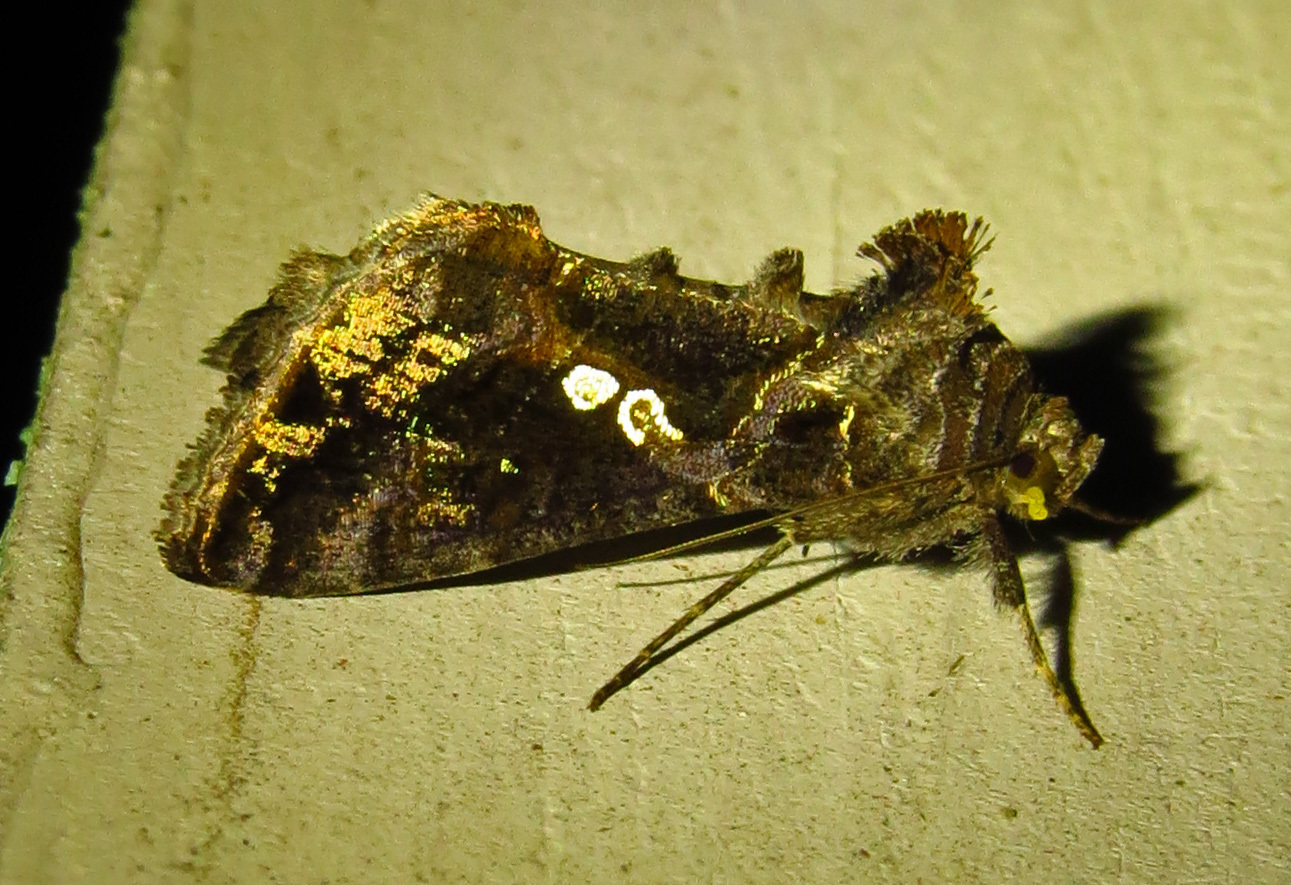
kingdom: Animalia
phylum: Arthropoda
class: Insecta
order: Lepidoptera
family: Noctuidae
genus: Chrysodeixis
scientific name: Chrysodeixis includens
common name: Cutworm moth
